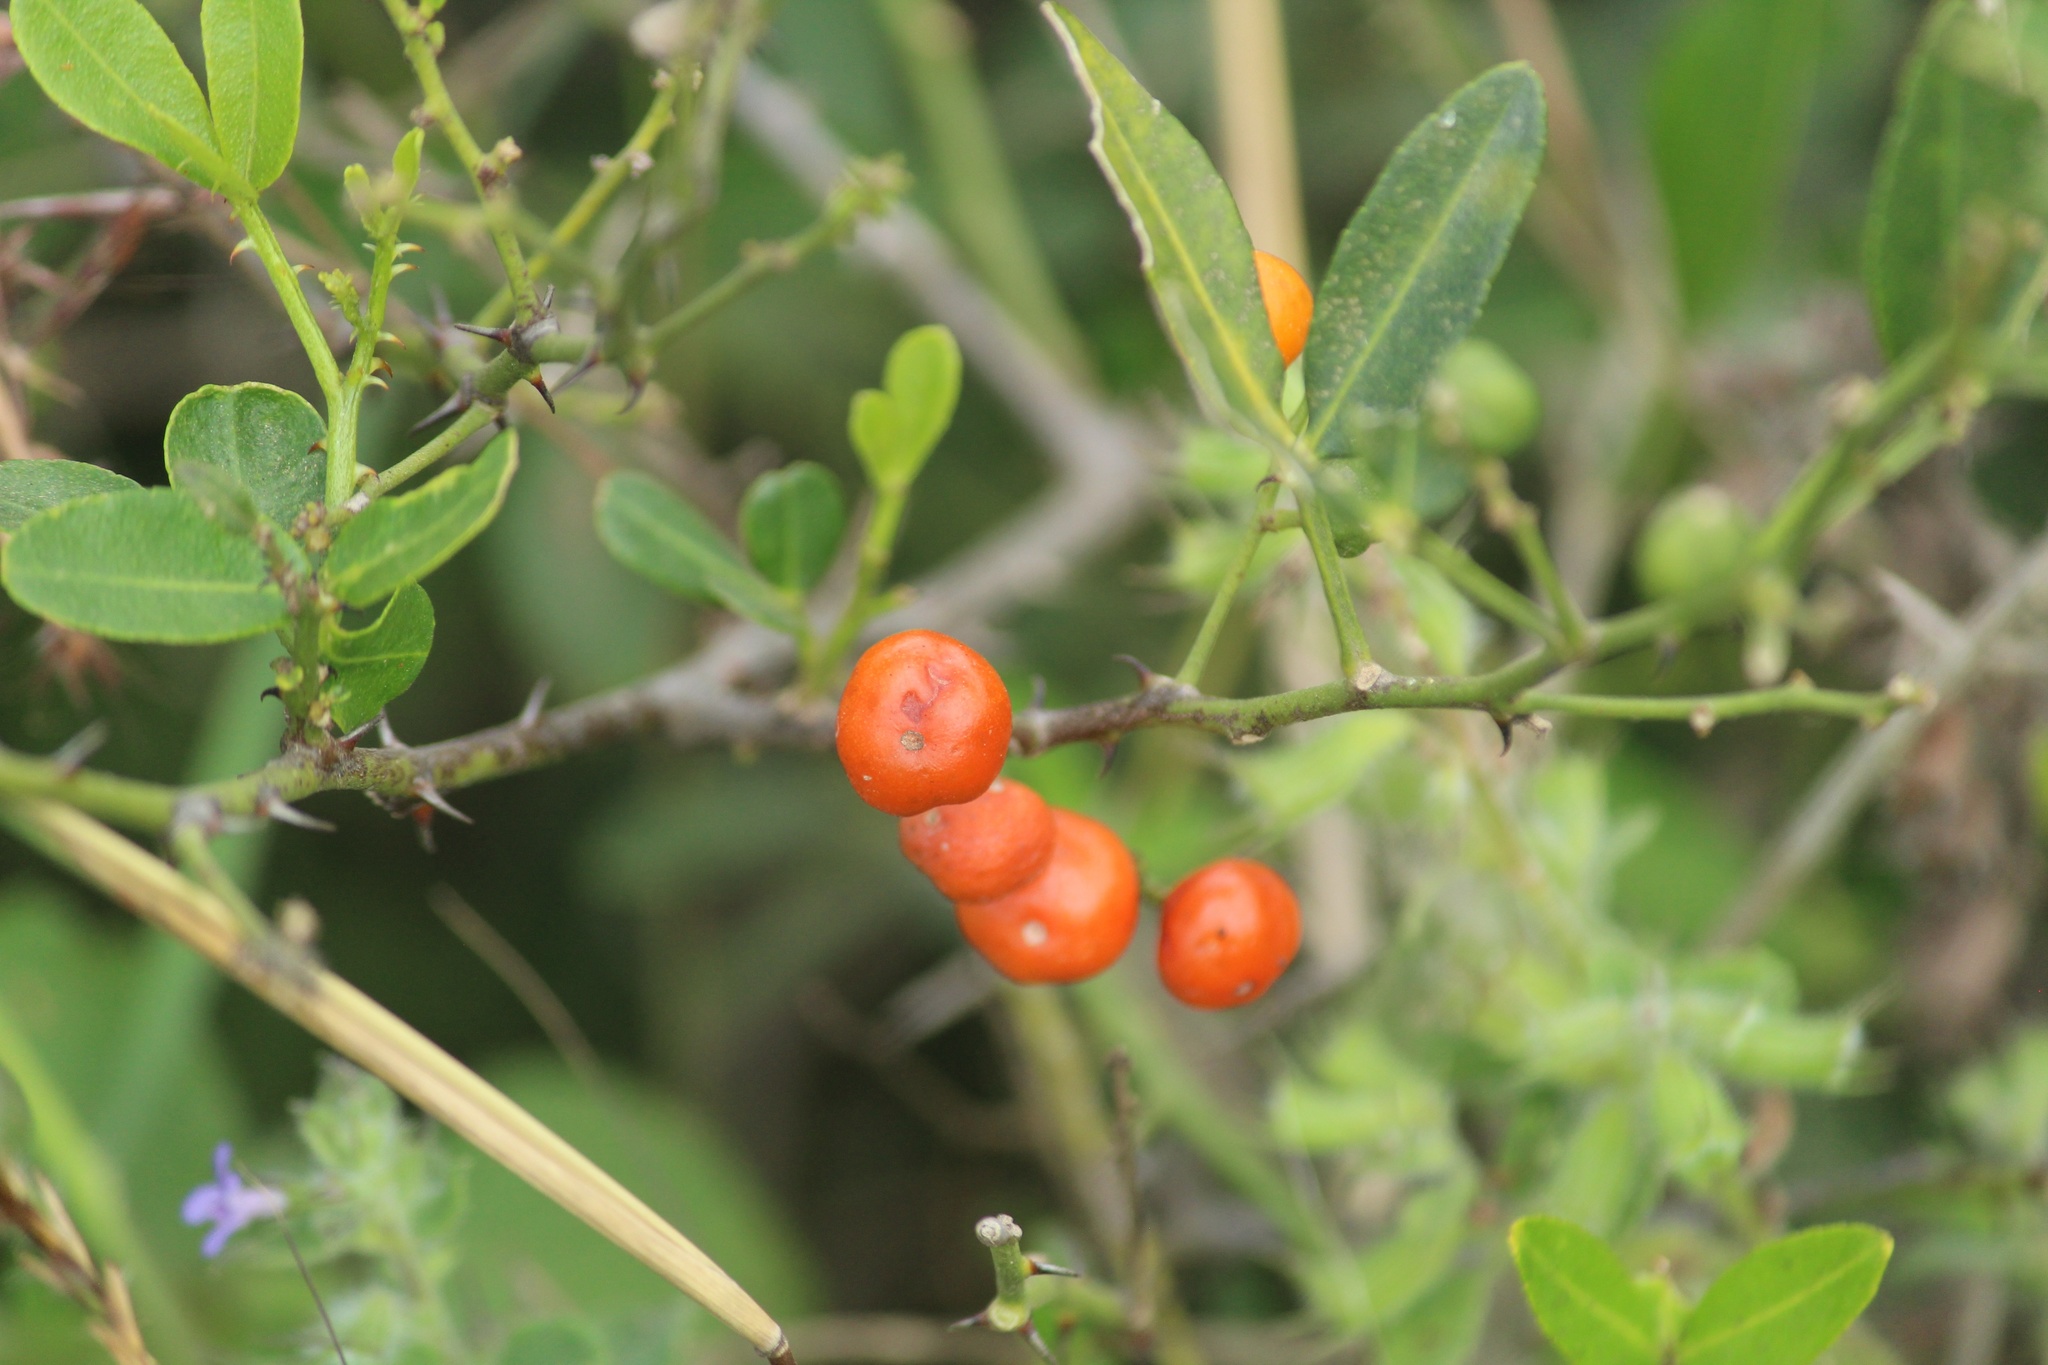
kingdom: Plantae
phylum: Tracheophyta
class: Magnoliopsida
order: Sapindales
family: Rutaceae
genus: Zanthoxylum
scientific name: Zanthoxylum asiaticum
